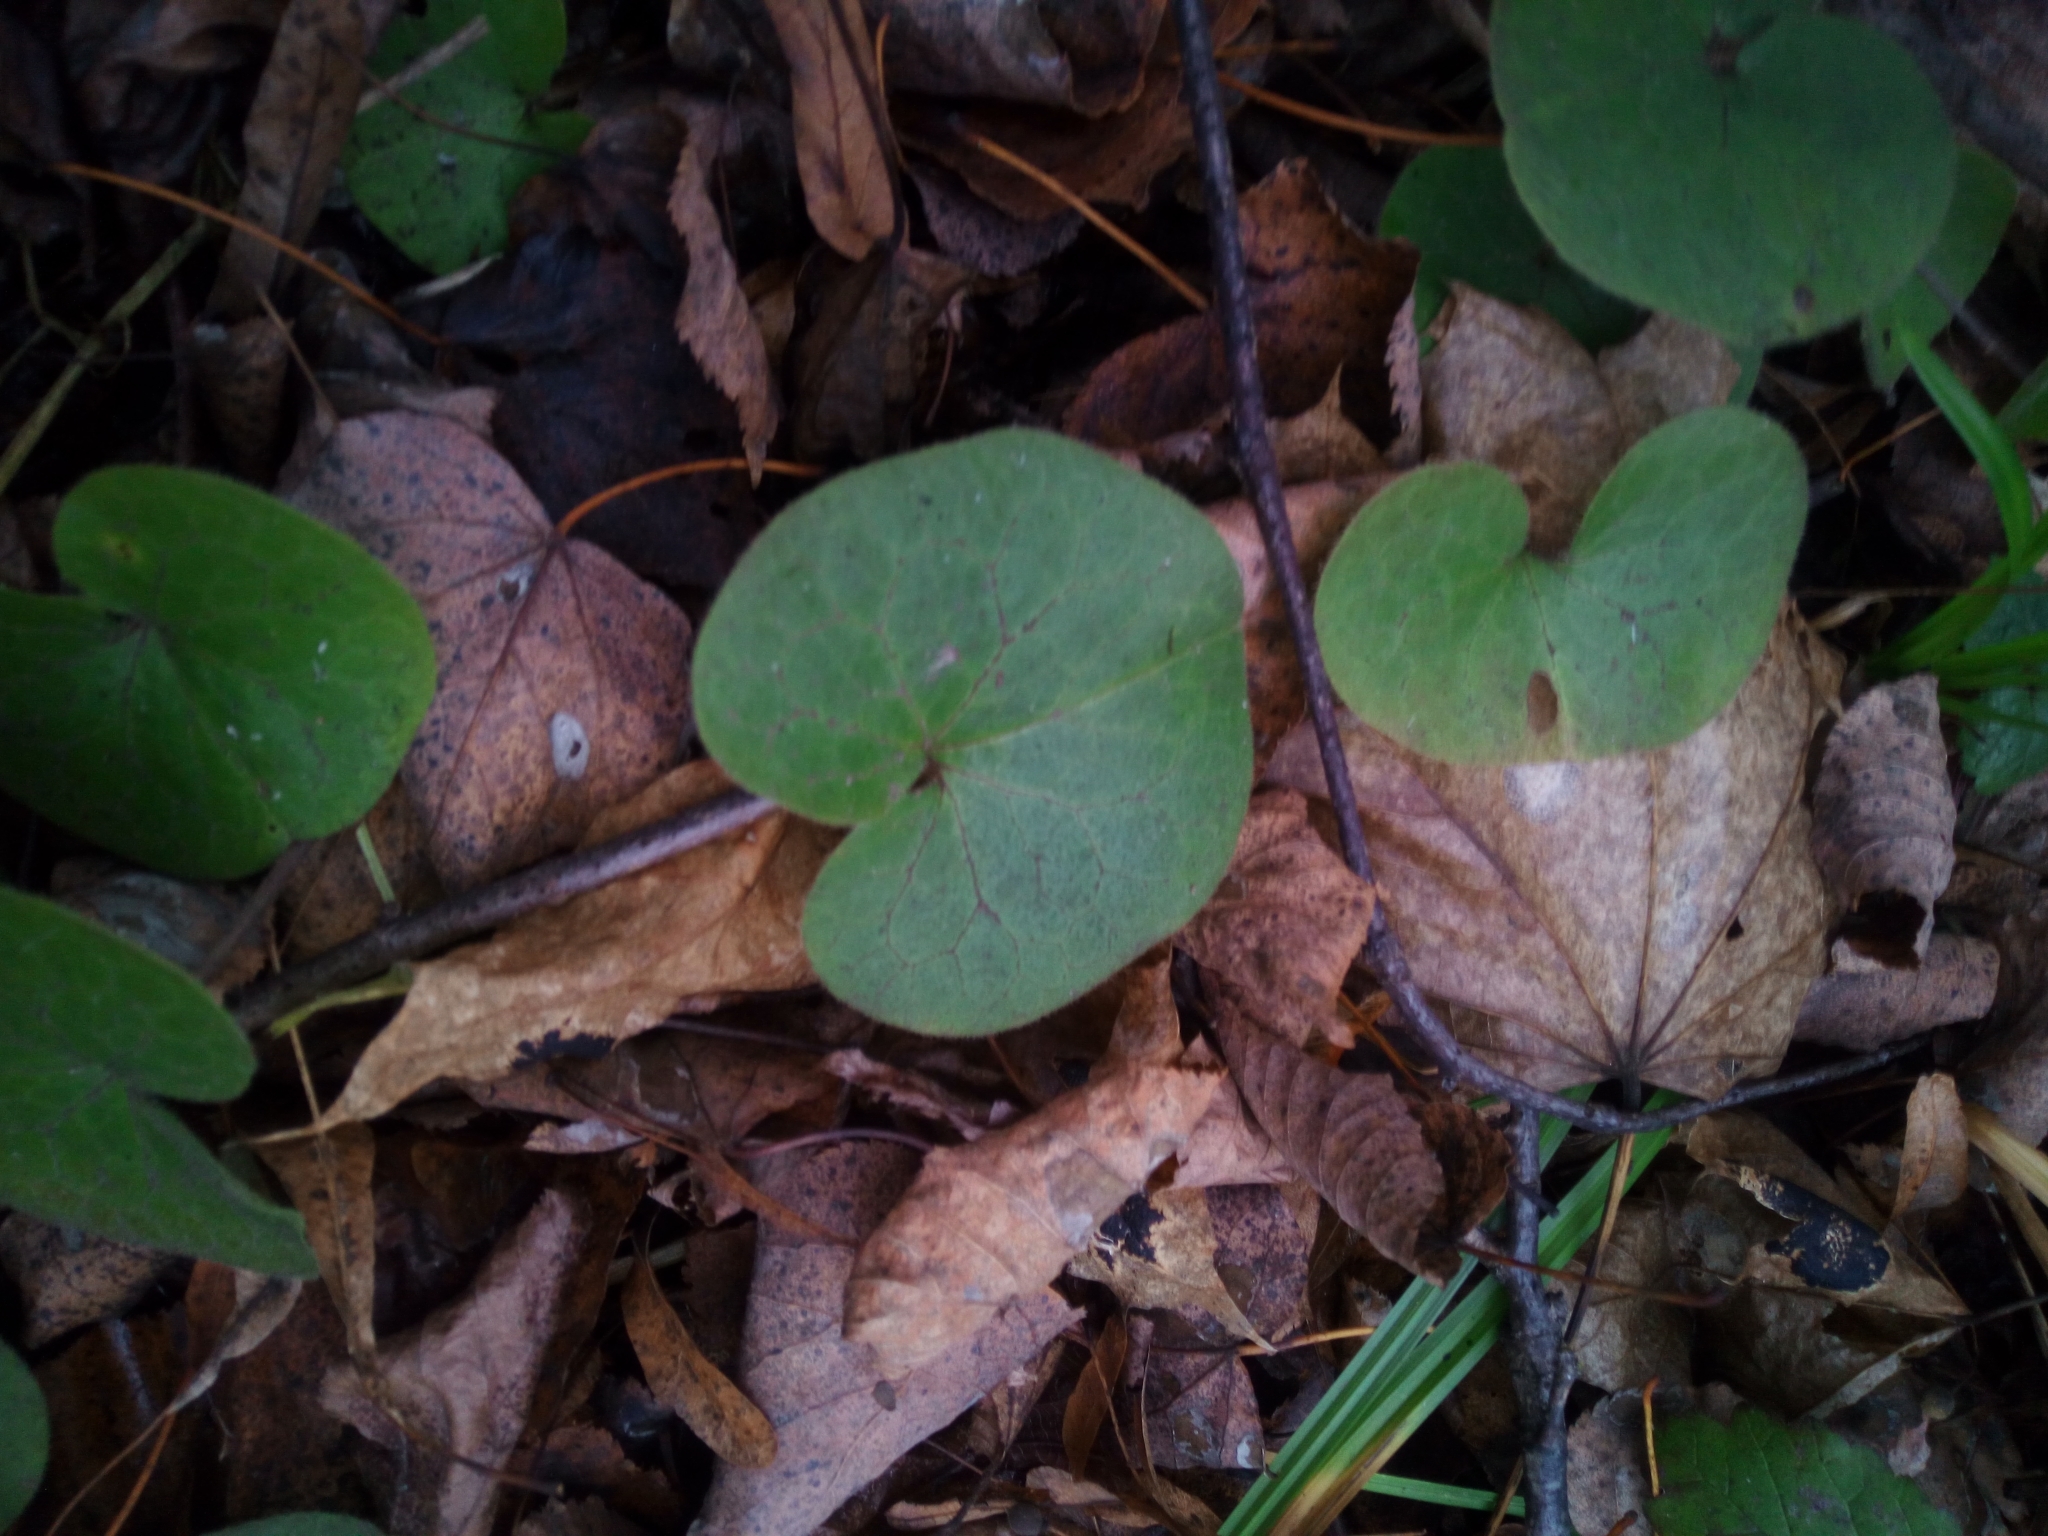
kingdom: Plantae
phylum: Tracheophyta
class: Magnoliopsida
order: Piperales
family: Aristolochiaceae
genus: Asarum
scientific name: Asarum europaeum
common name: Asarabacca
